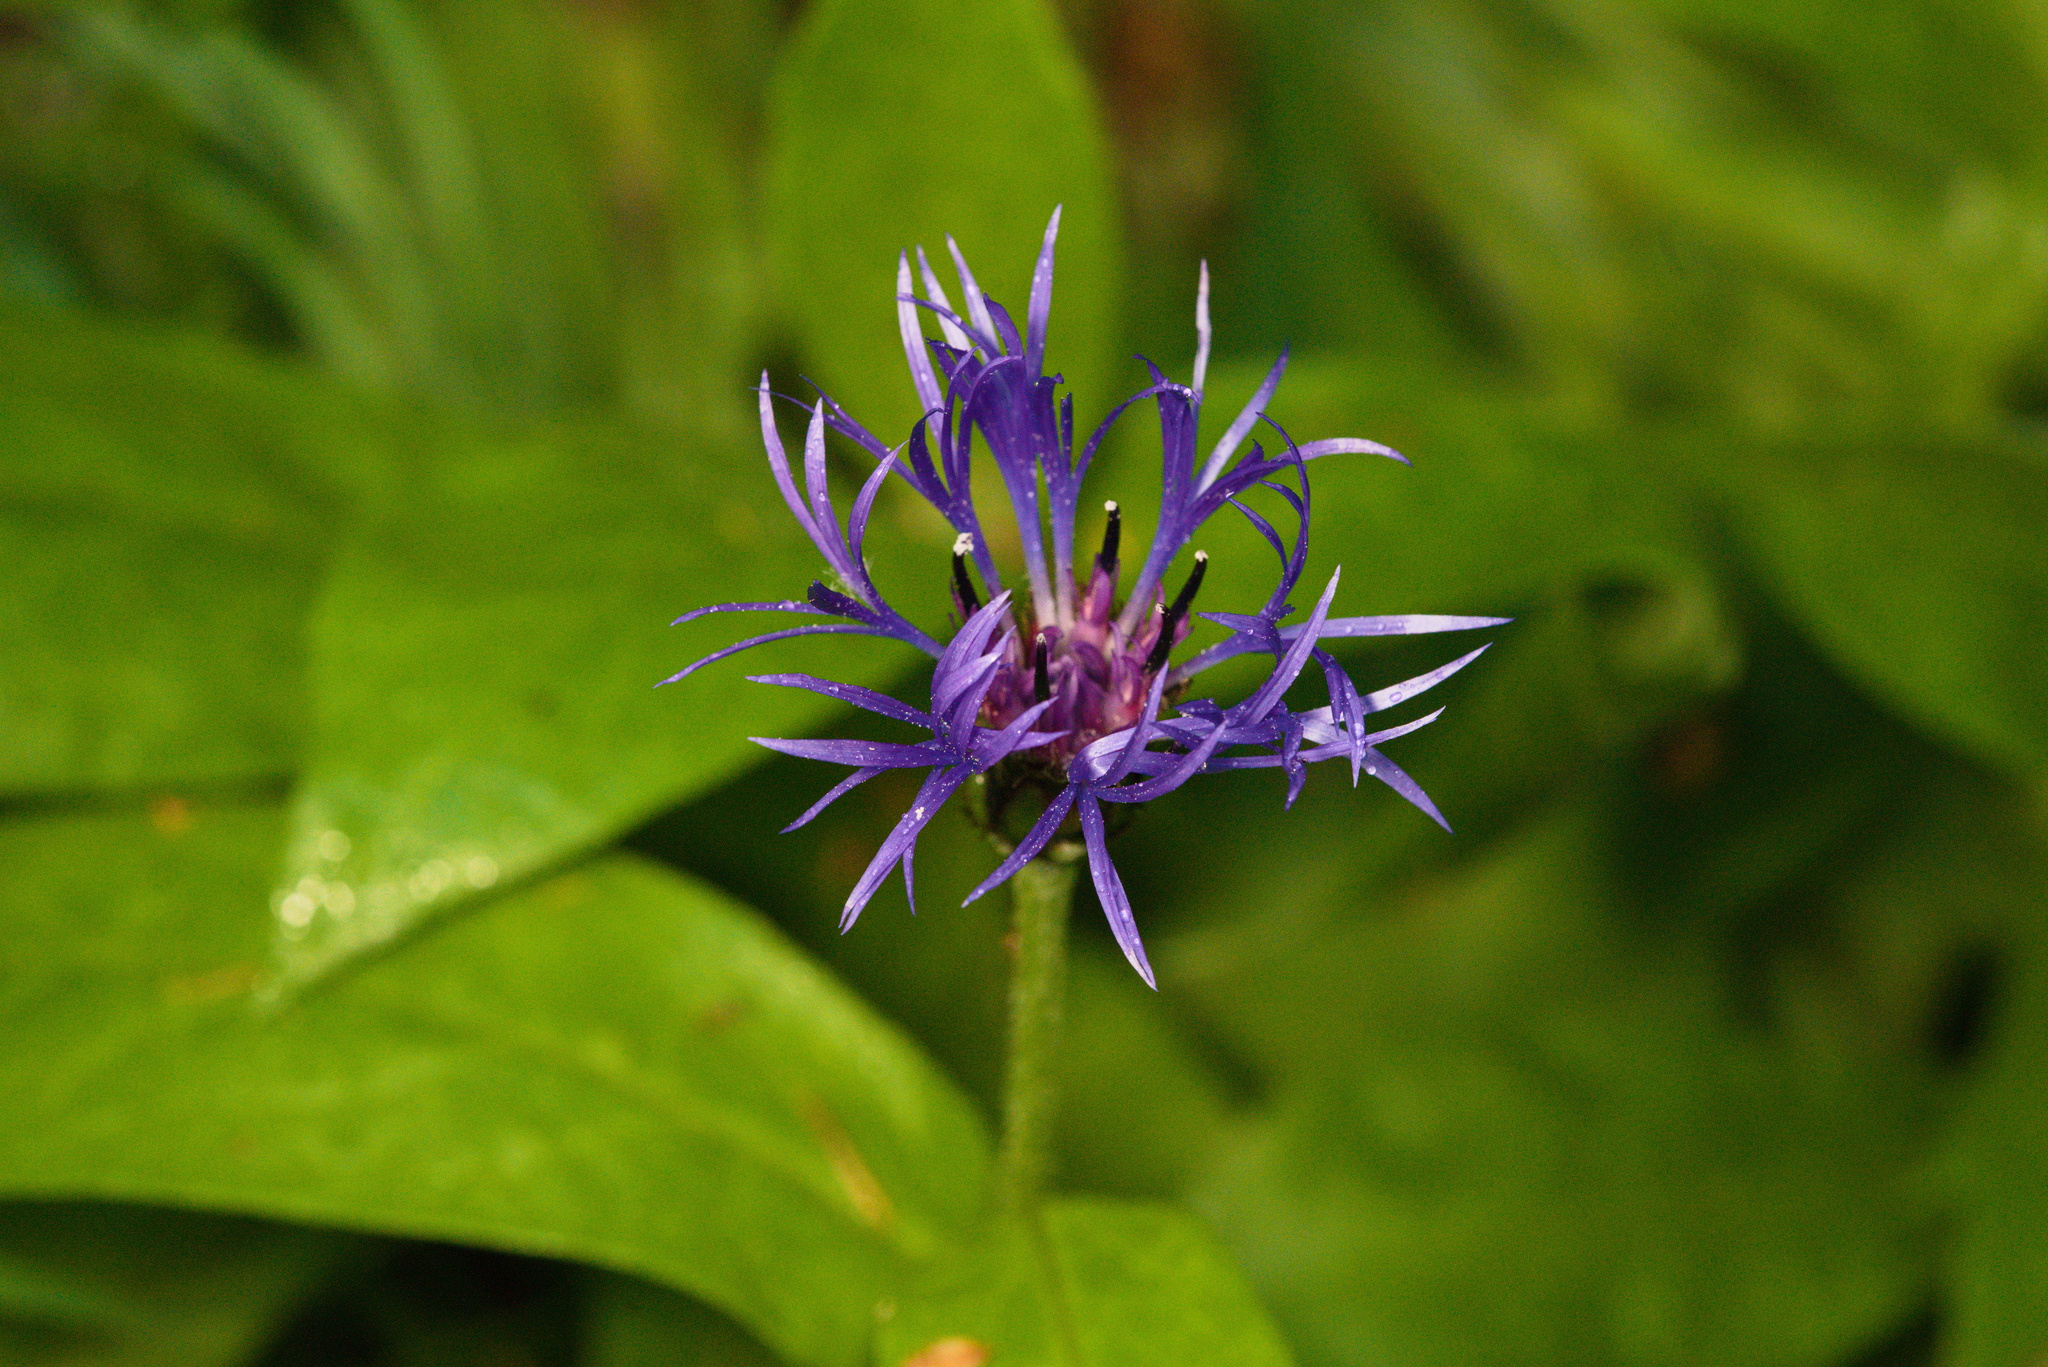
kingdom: Plantae
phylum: Tracheophyta
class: Magnoliopsida
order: Asterales
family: Asteraceae
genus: Centaurea
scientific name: Centaurea montana
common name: Perennial cornflower
